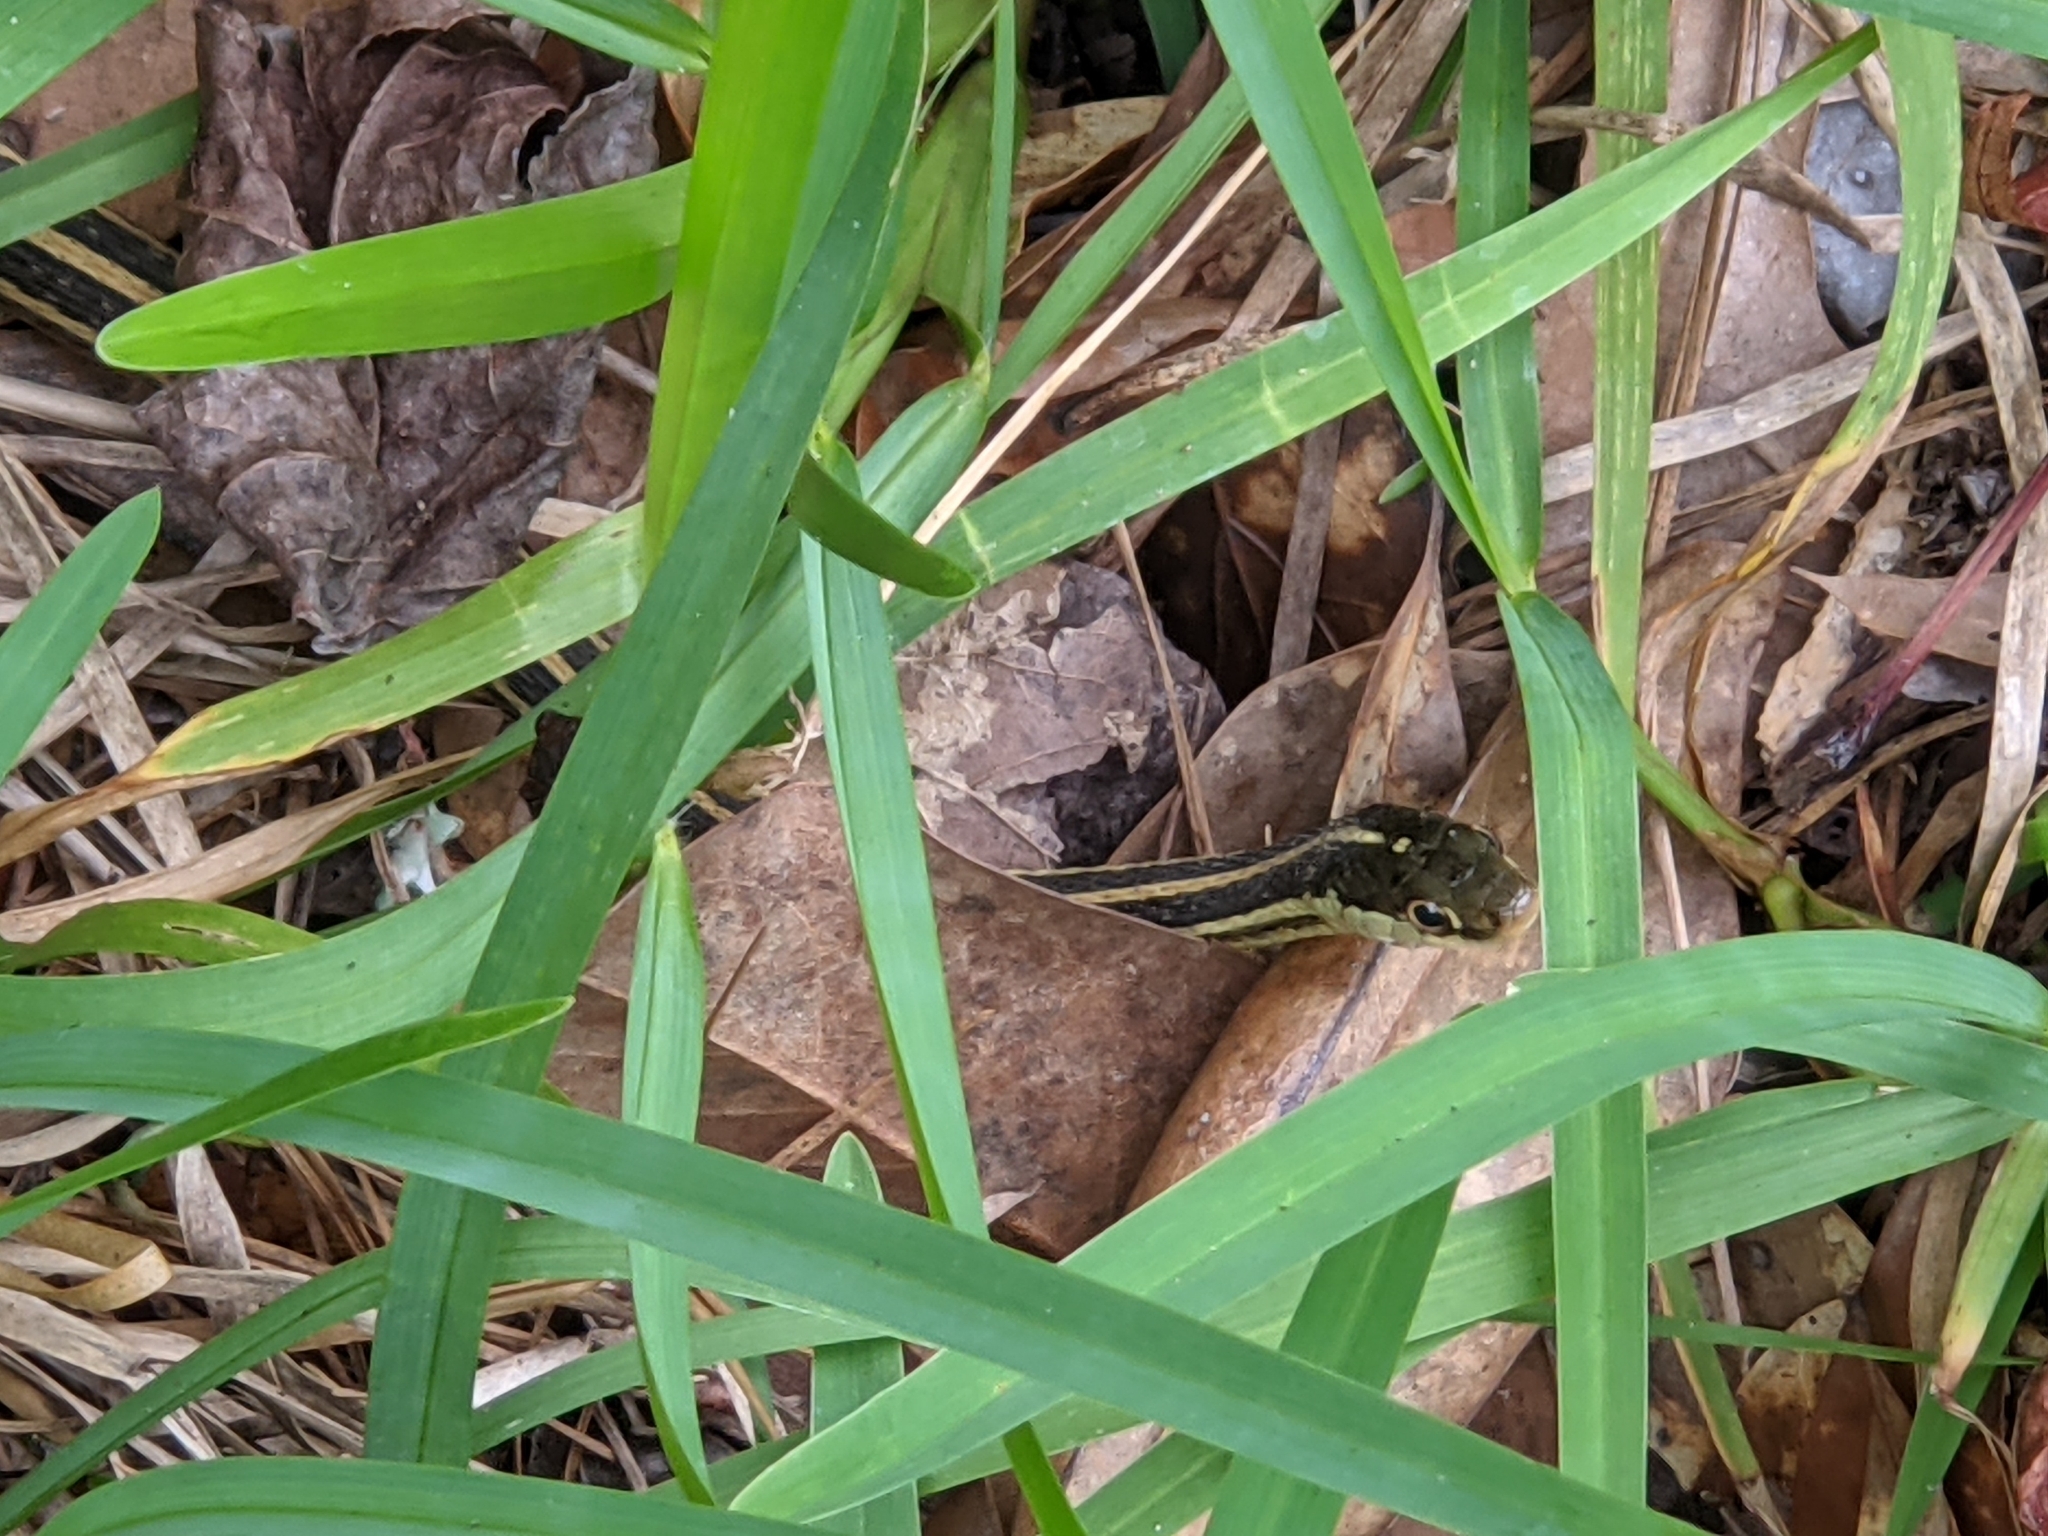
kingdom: Animalia
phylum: Chordata
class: Squamata
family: Colubridae
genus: Thamnophis
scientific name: Thamnophis proximus
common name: Western ribbon snake
